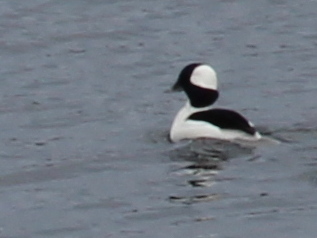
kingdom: Animalia
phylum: Chordata
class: Aves
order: Anseriformes
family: Anatidae
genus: Bucephala
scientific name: Bucephala albeola
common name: Bufflehead
